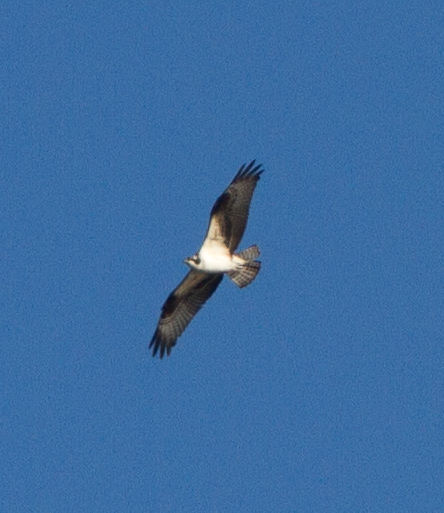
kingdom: Animalia
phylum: Chordata
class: Aves
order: Accipitriformes
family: Pandionidae
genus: Pandion
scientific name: Pandion haliaetus
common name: Osprey
